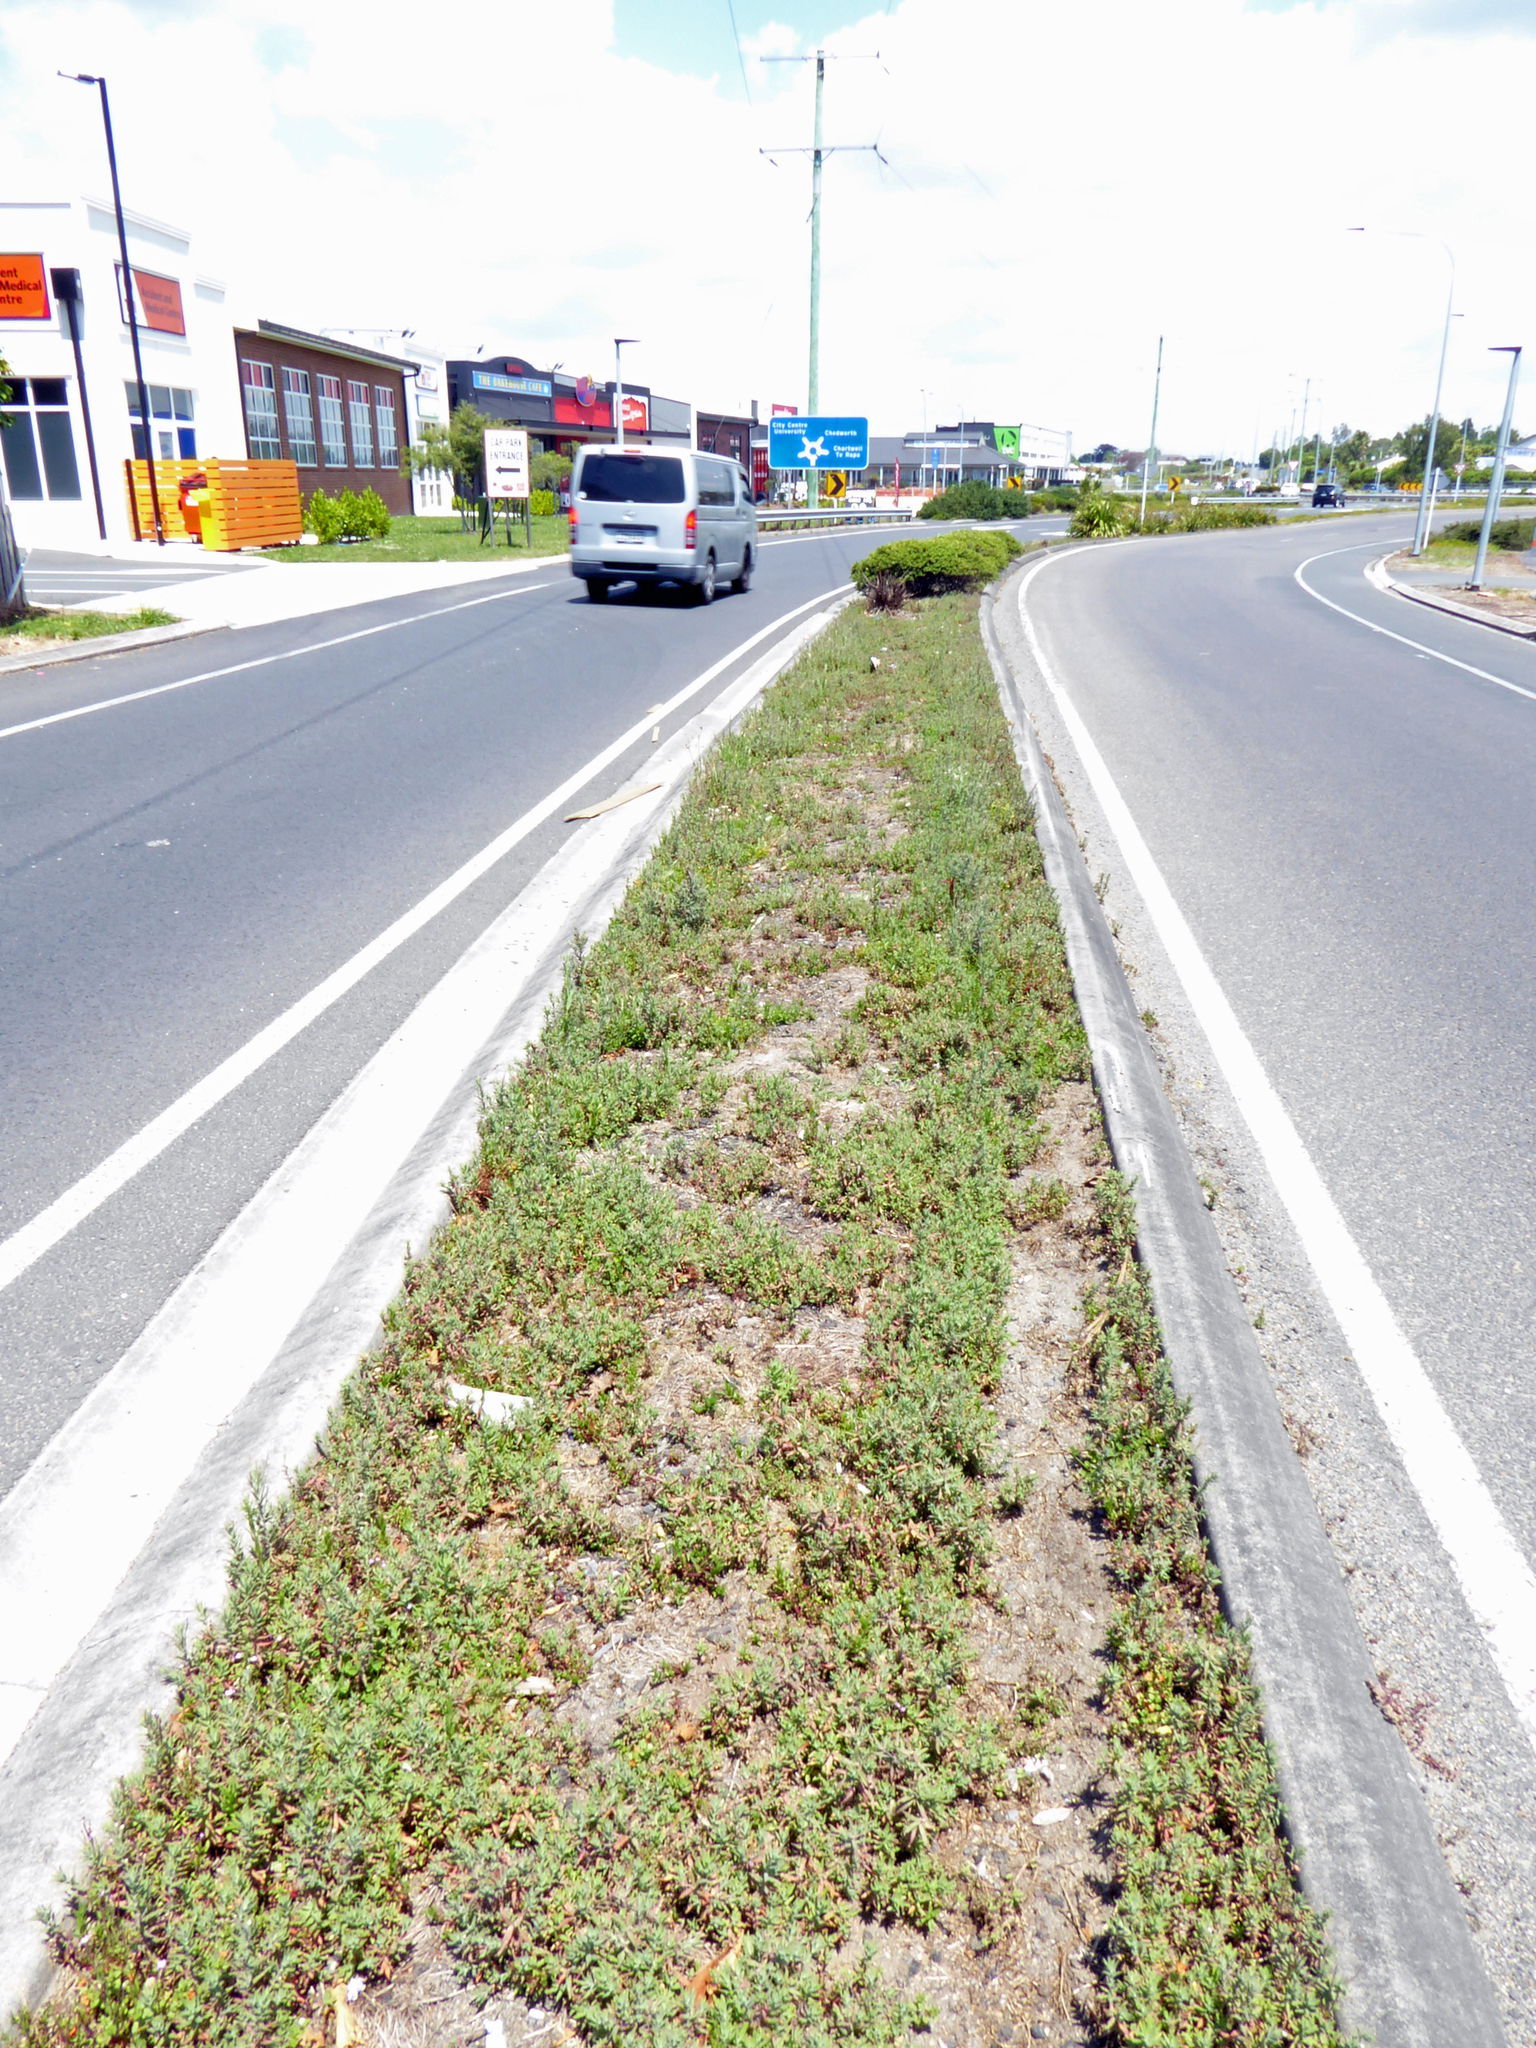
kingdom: Plantae
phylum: Tracheophyta
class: Magnoliopsida
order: Myrtales
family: Onagraceae
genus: Epilobium
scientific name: Epilobium hirtigerum
